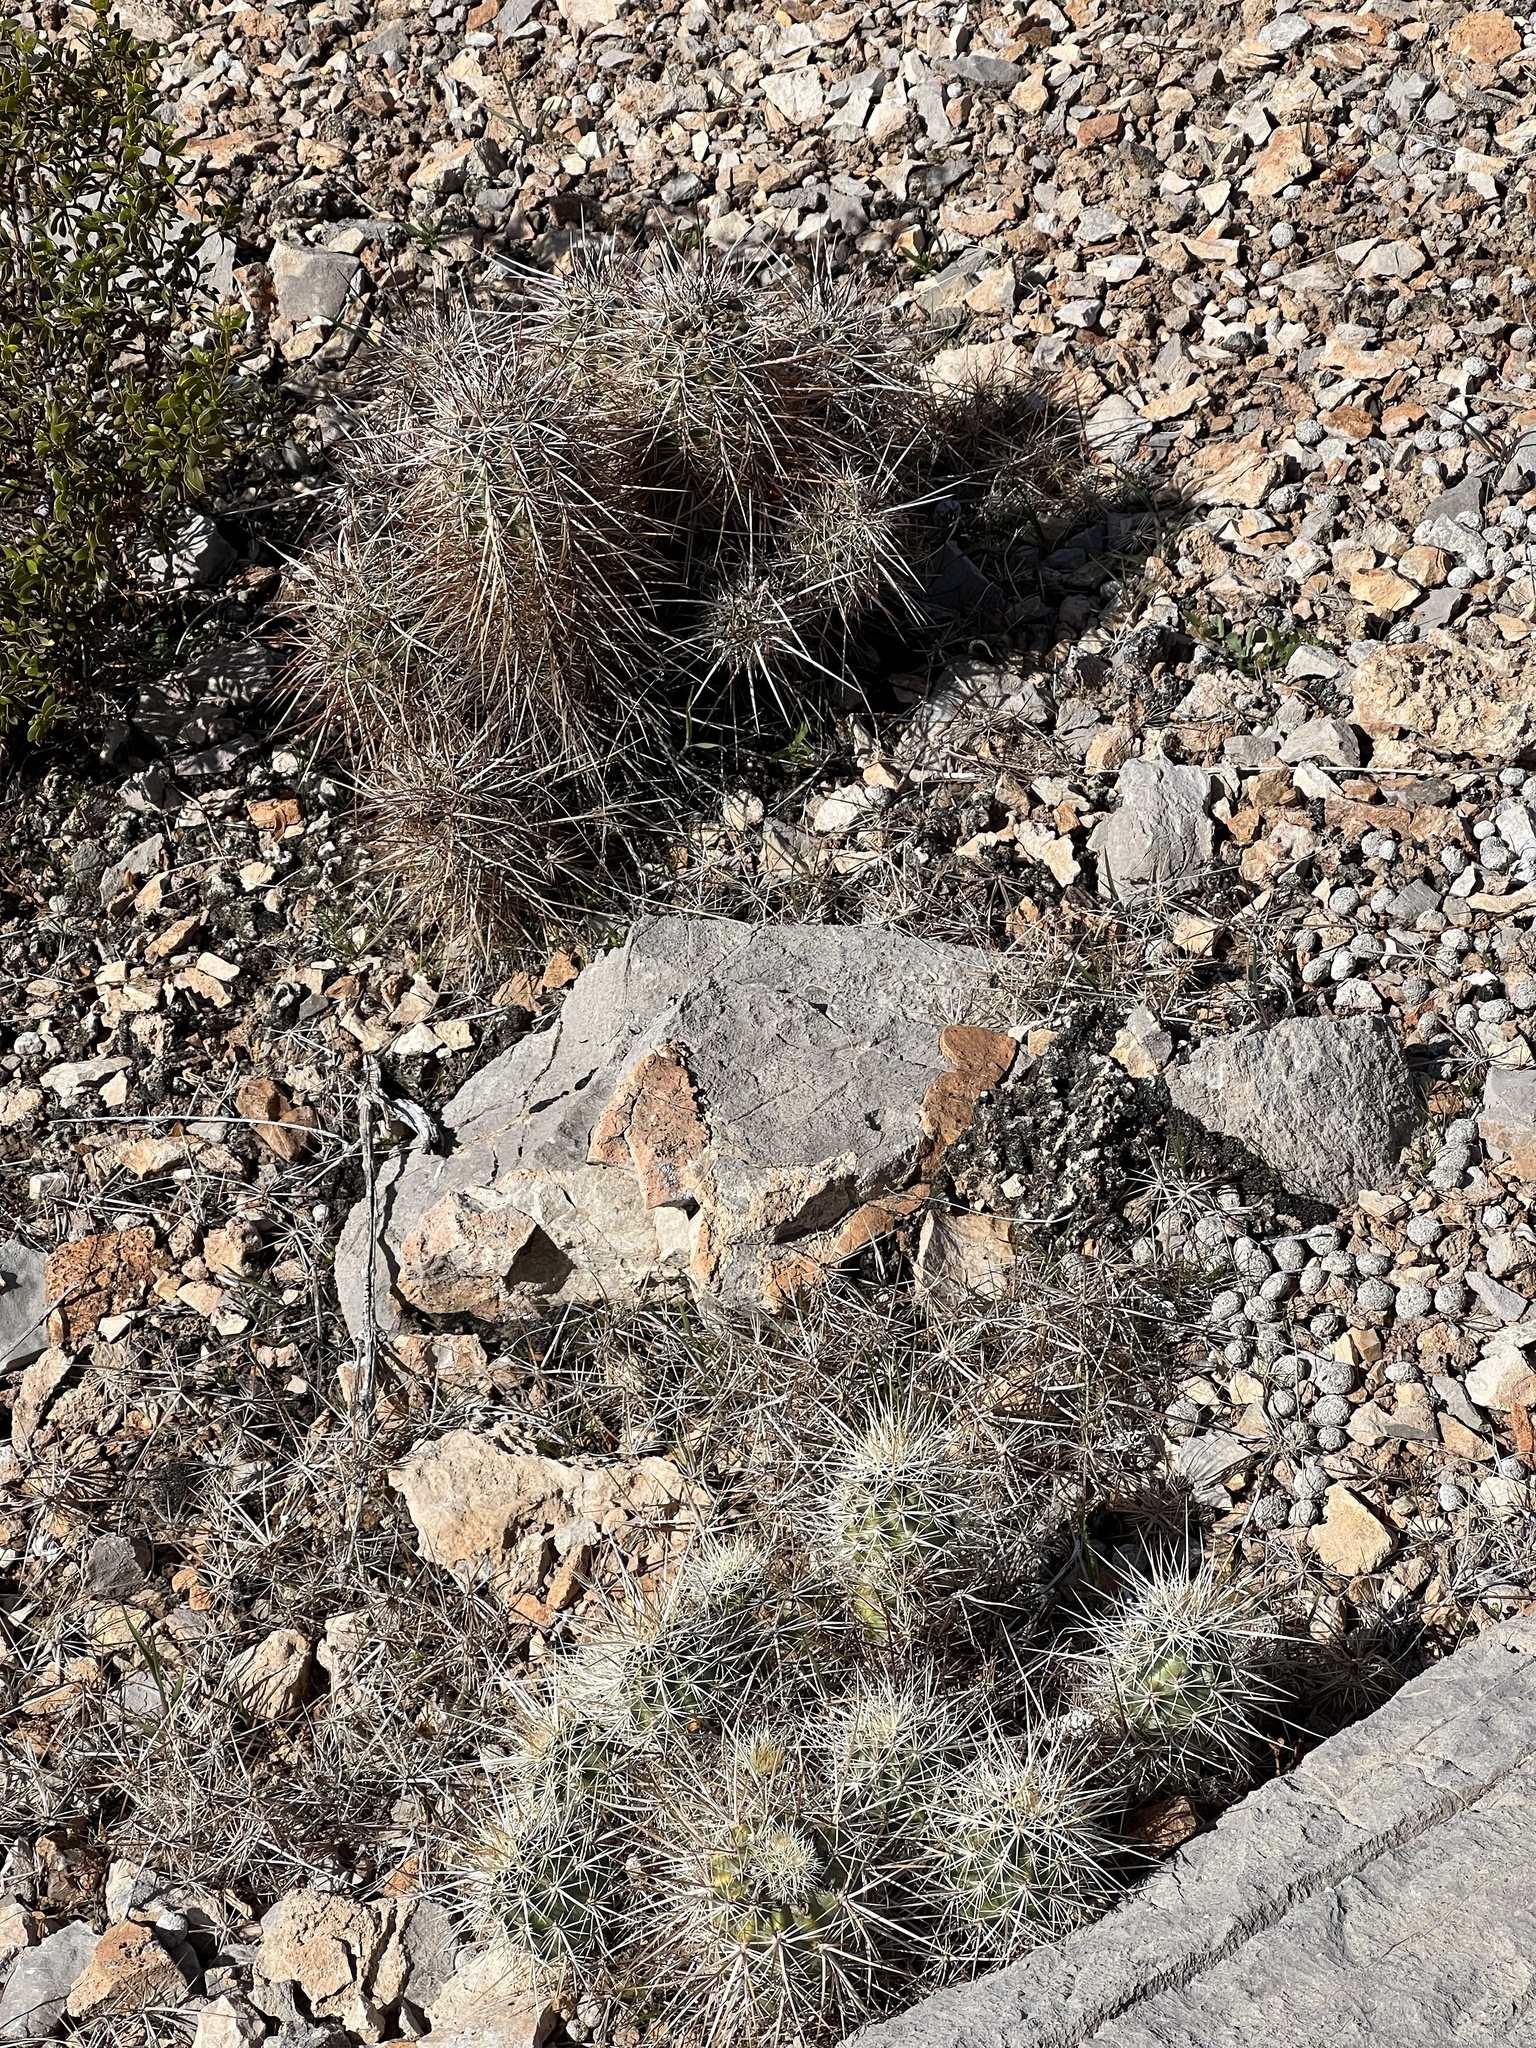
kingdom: Plantae
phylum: Tracheophyta
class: Magnoliopsida
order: Caryophyllales
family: Cactaceae
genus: Echinocereus
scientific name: Echinocereus engelmannii
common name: Engelmann's hedgehog cactus
